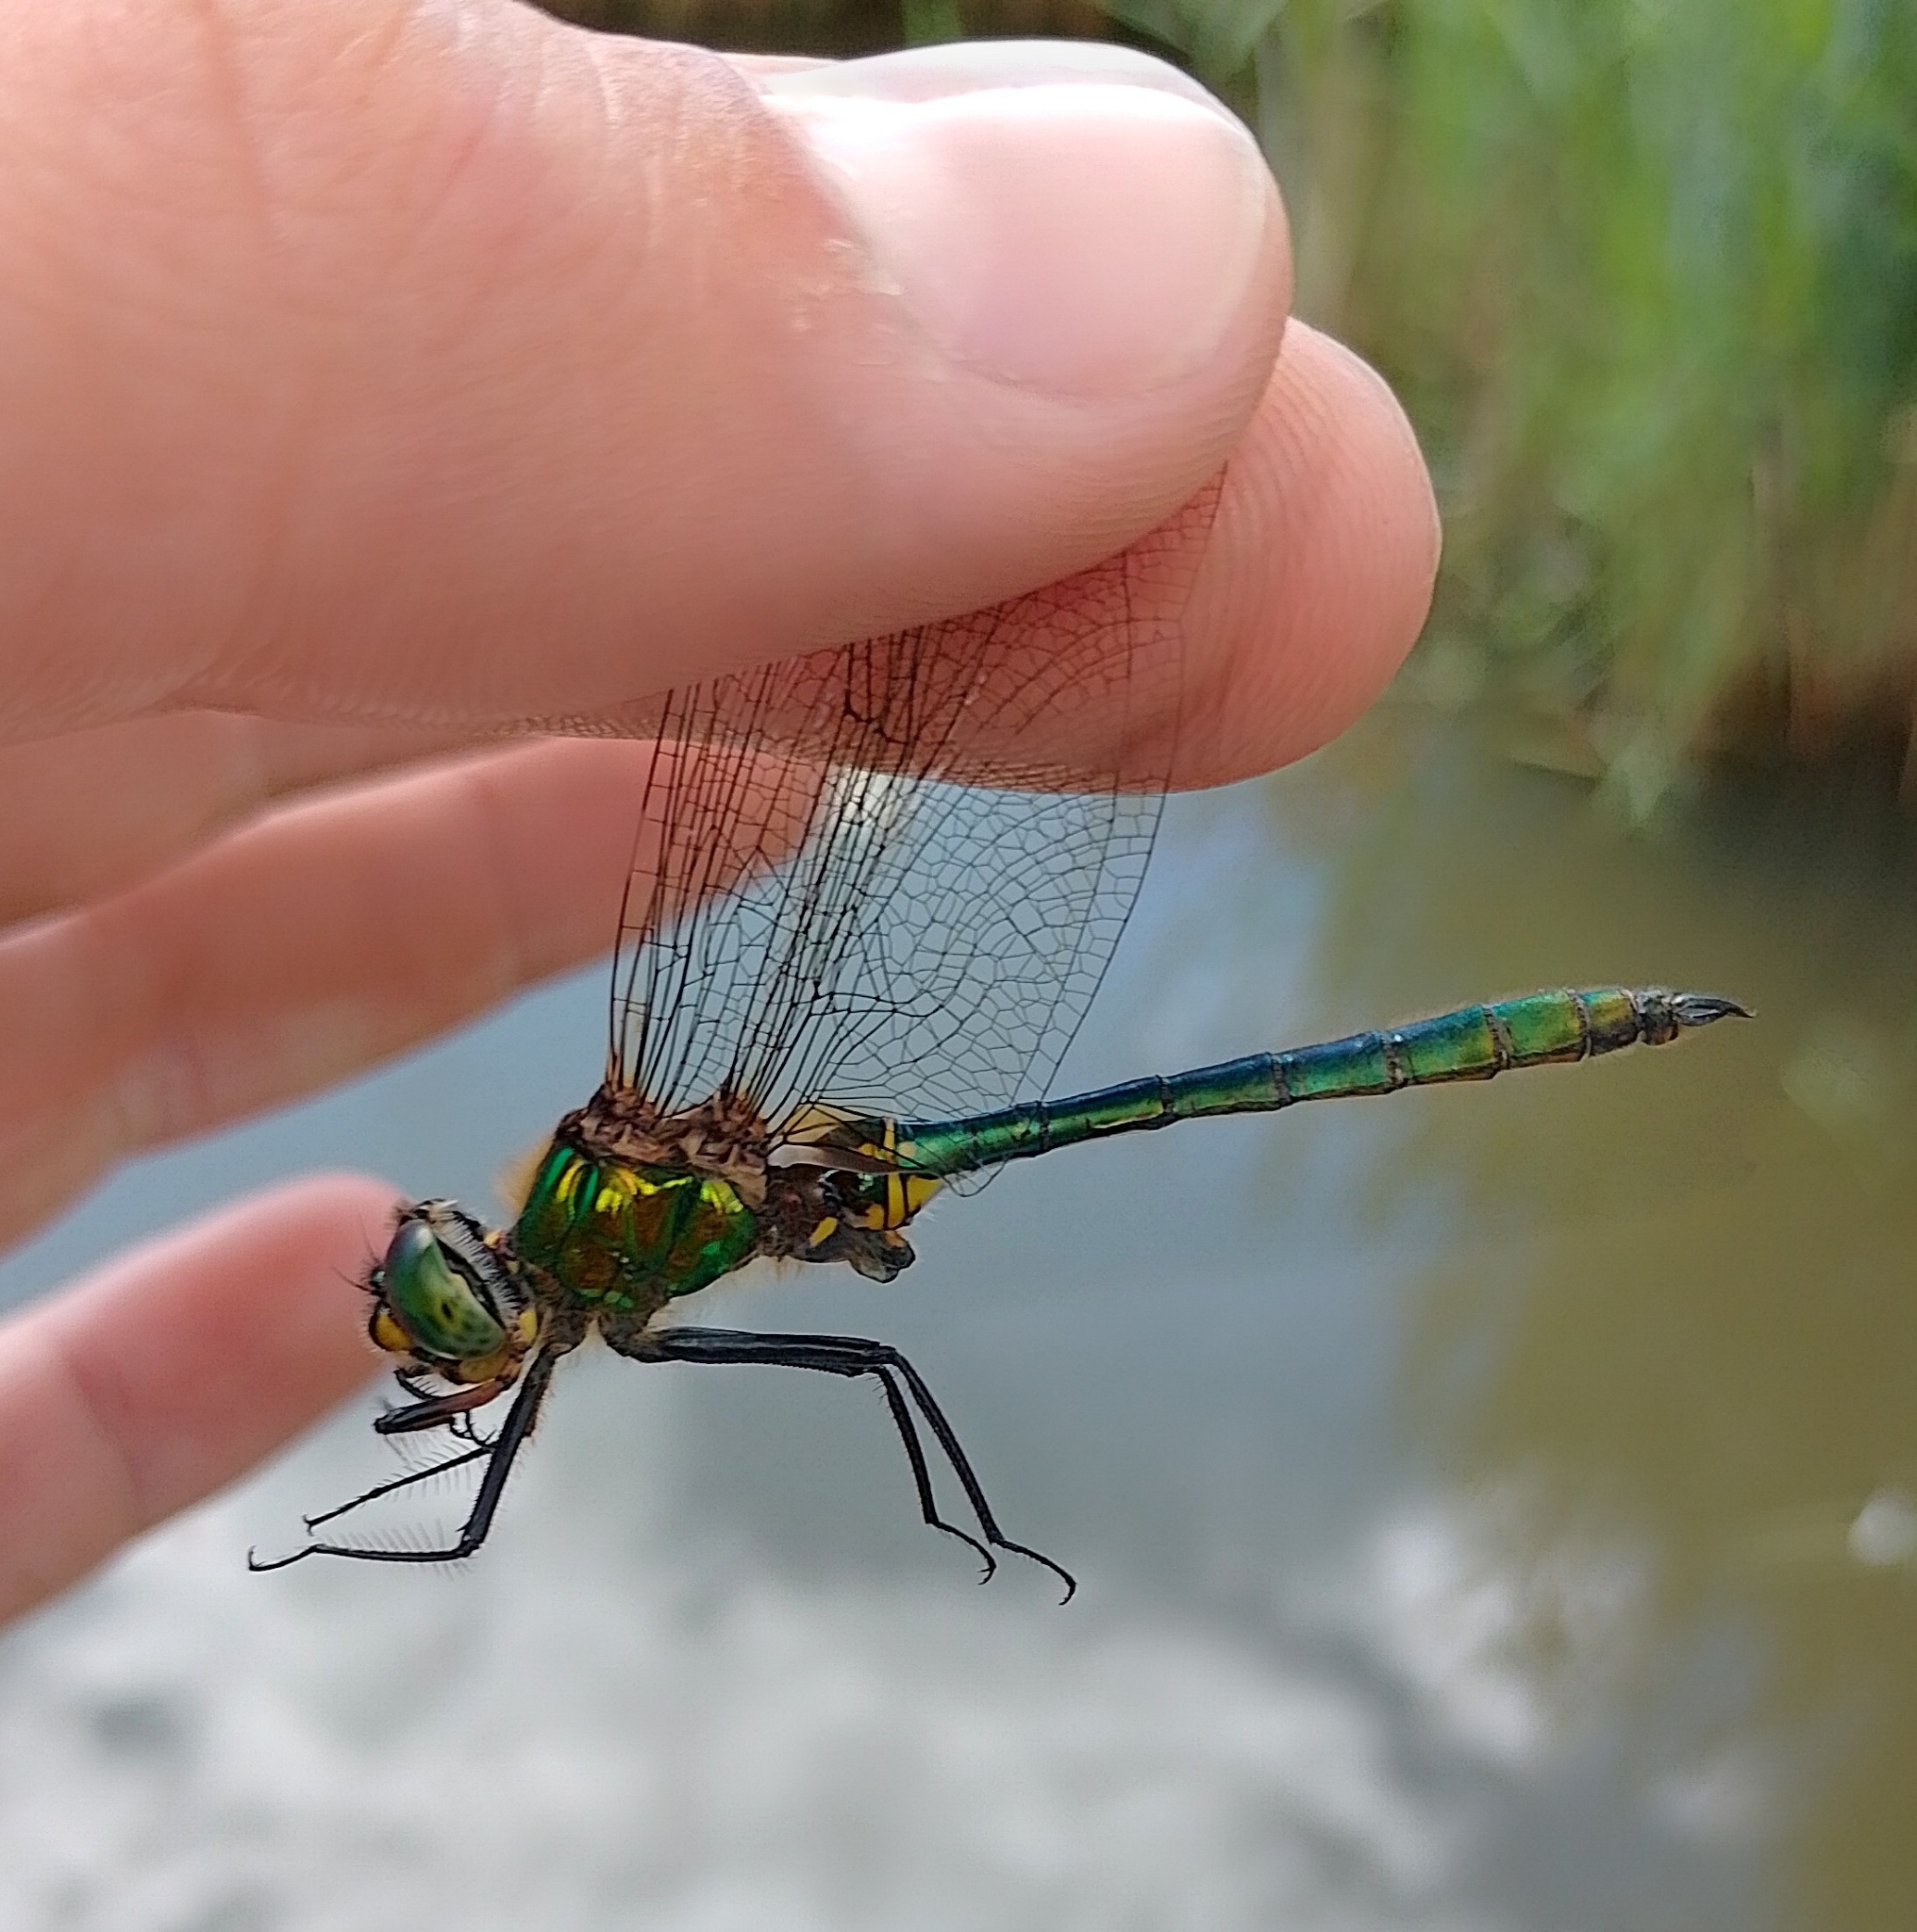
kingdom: Animalia
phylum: Arthropoda
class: Insecta
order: Odonata
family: Corduliidae
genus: Somatochlora
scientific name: Somatochlora metallica
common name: Brilliant emerald
